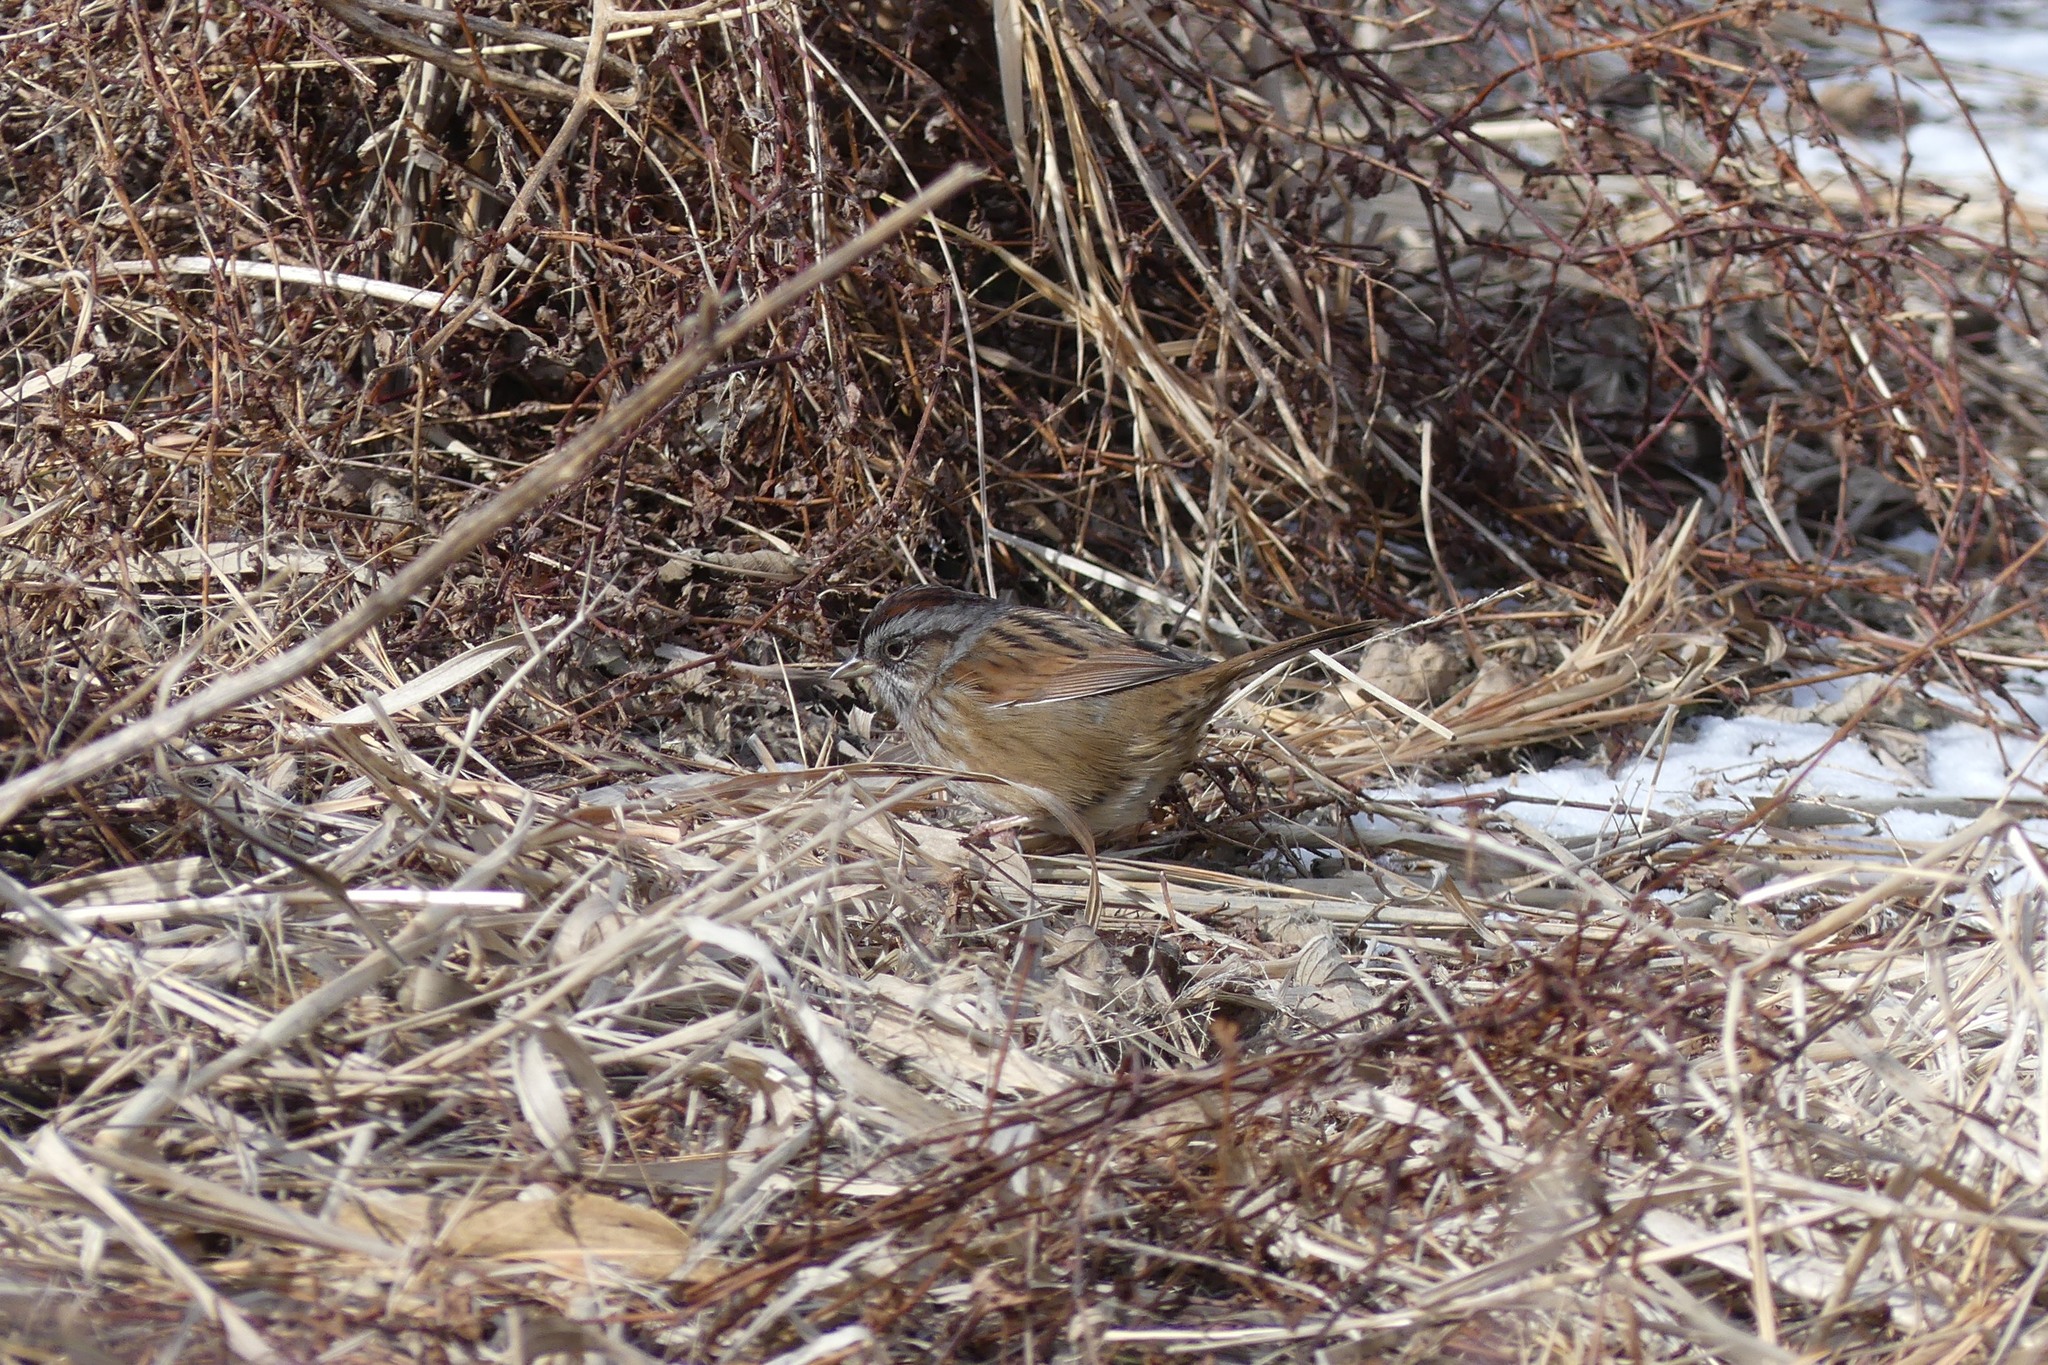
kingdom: Animalia
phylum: Chordata
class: Aves
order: Passeriformes
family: Passerellidae
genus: Melospiza
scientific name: Melospiza georgiana
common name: Swamp sparrow
